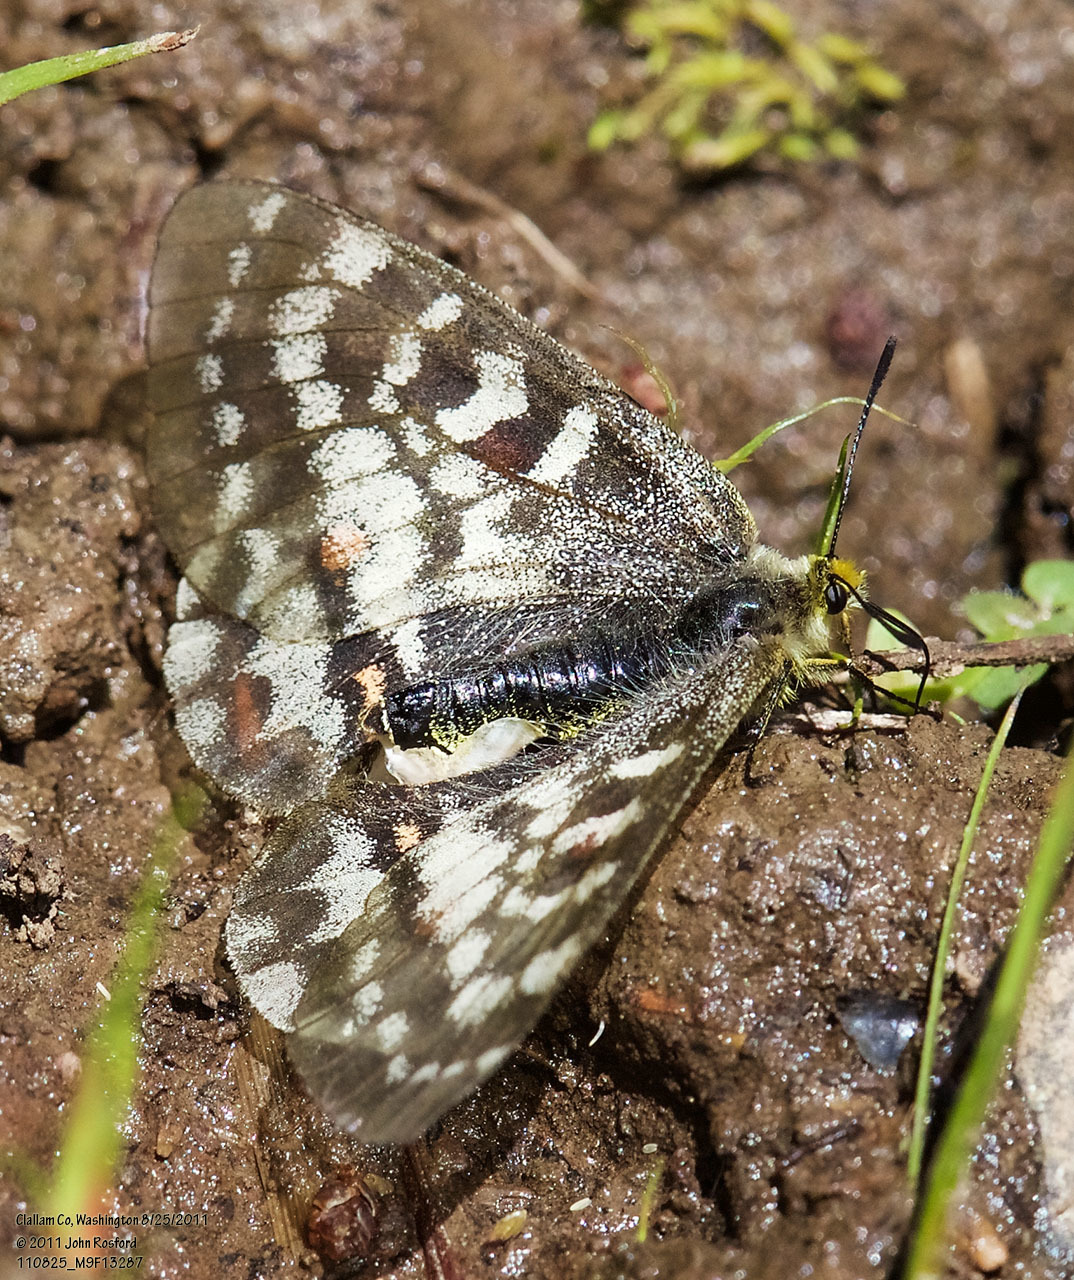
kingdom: Animalia
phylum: Arthropoda
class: Insecta
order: Lepidoptera
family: Papilionidae
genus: Parnassius
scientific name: Parnassius clodius
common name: American apollo
